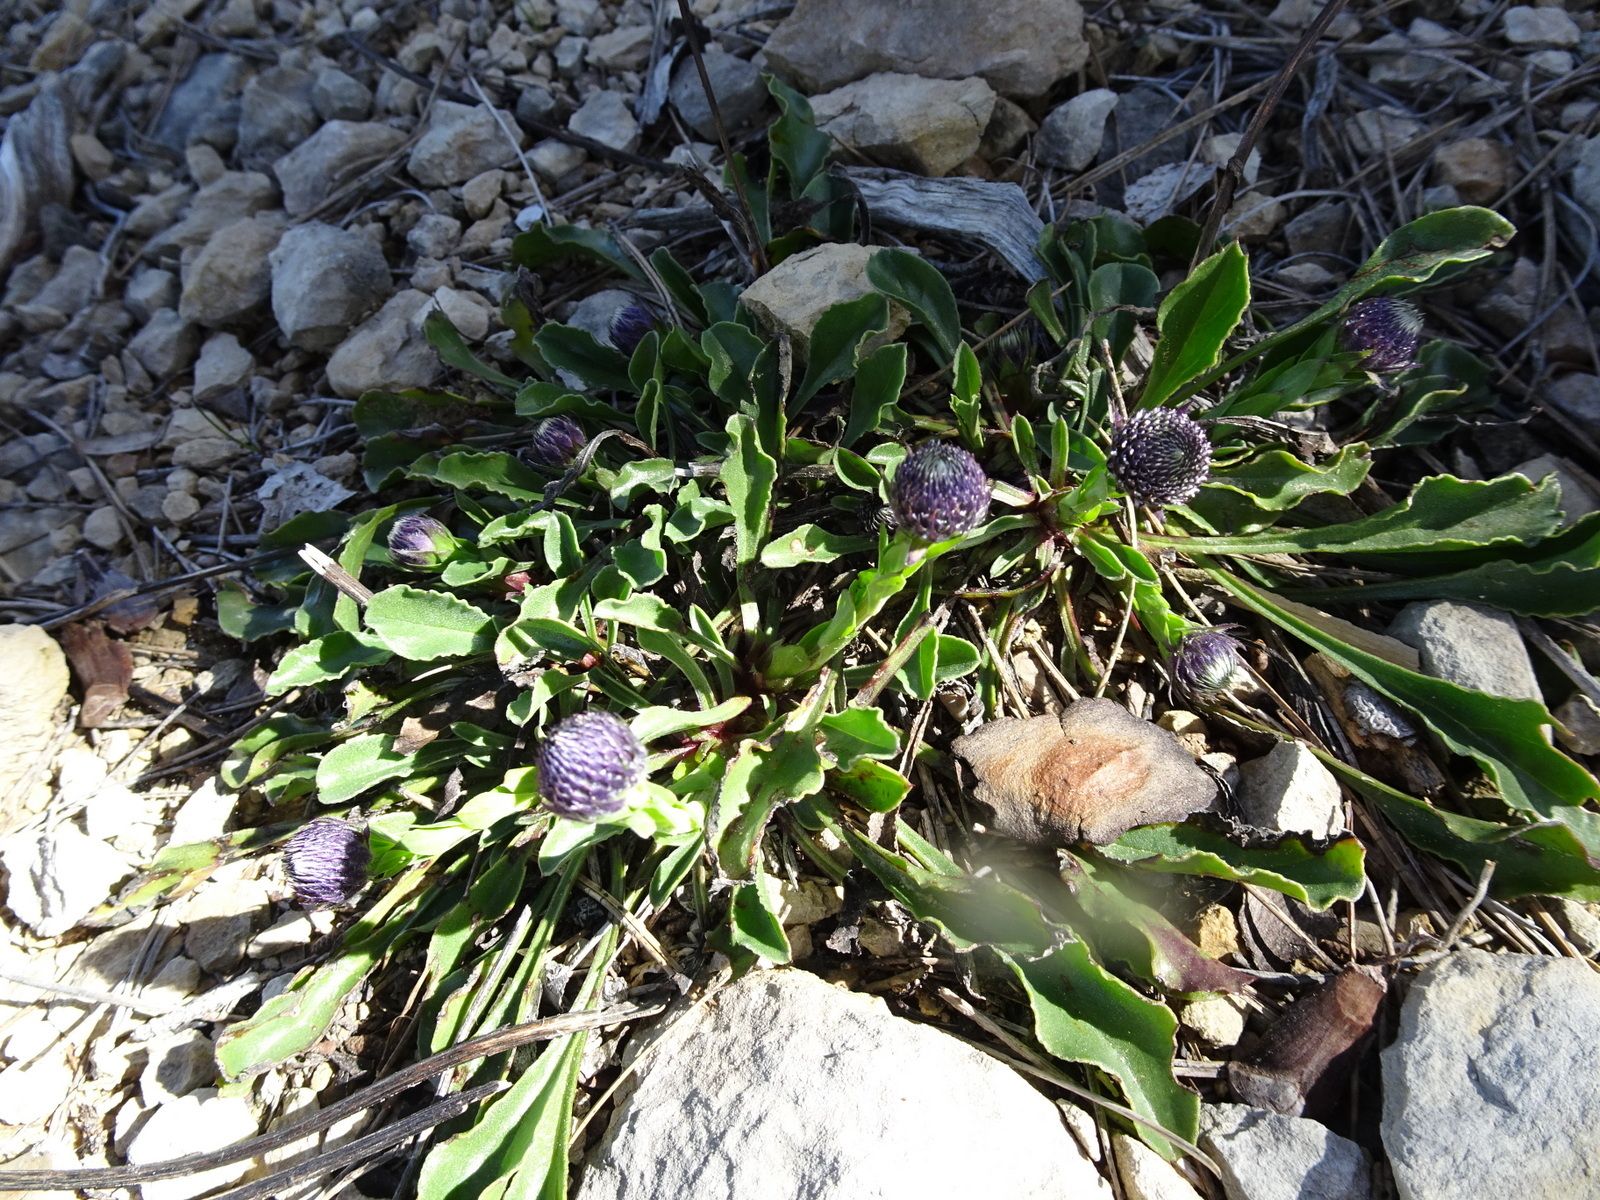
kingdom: Plantae
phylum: Tracheophyta
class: Magnoliopsida
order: Lamiales
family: Plantaginaceae
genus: Globularia
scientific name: Globularia vulgaris
